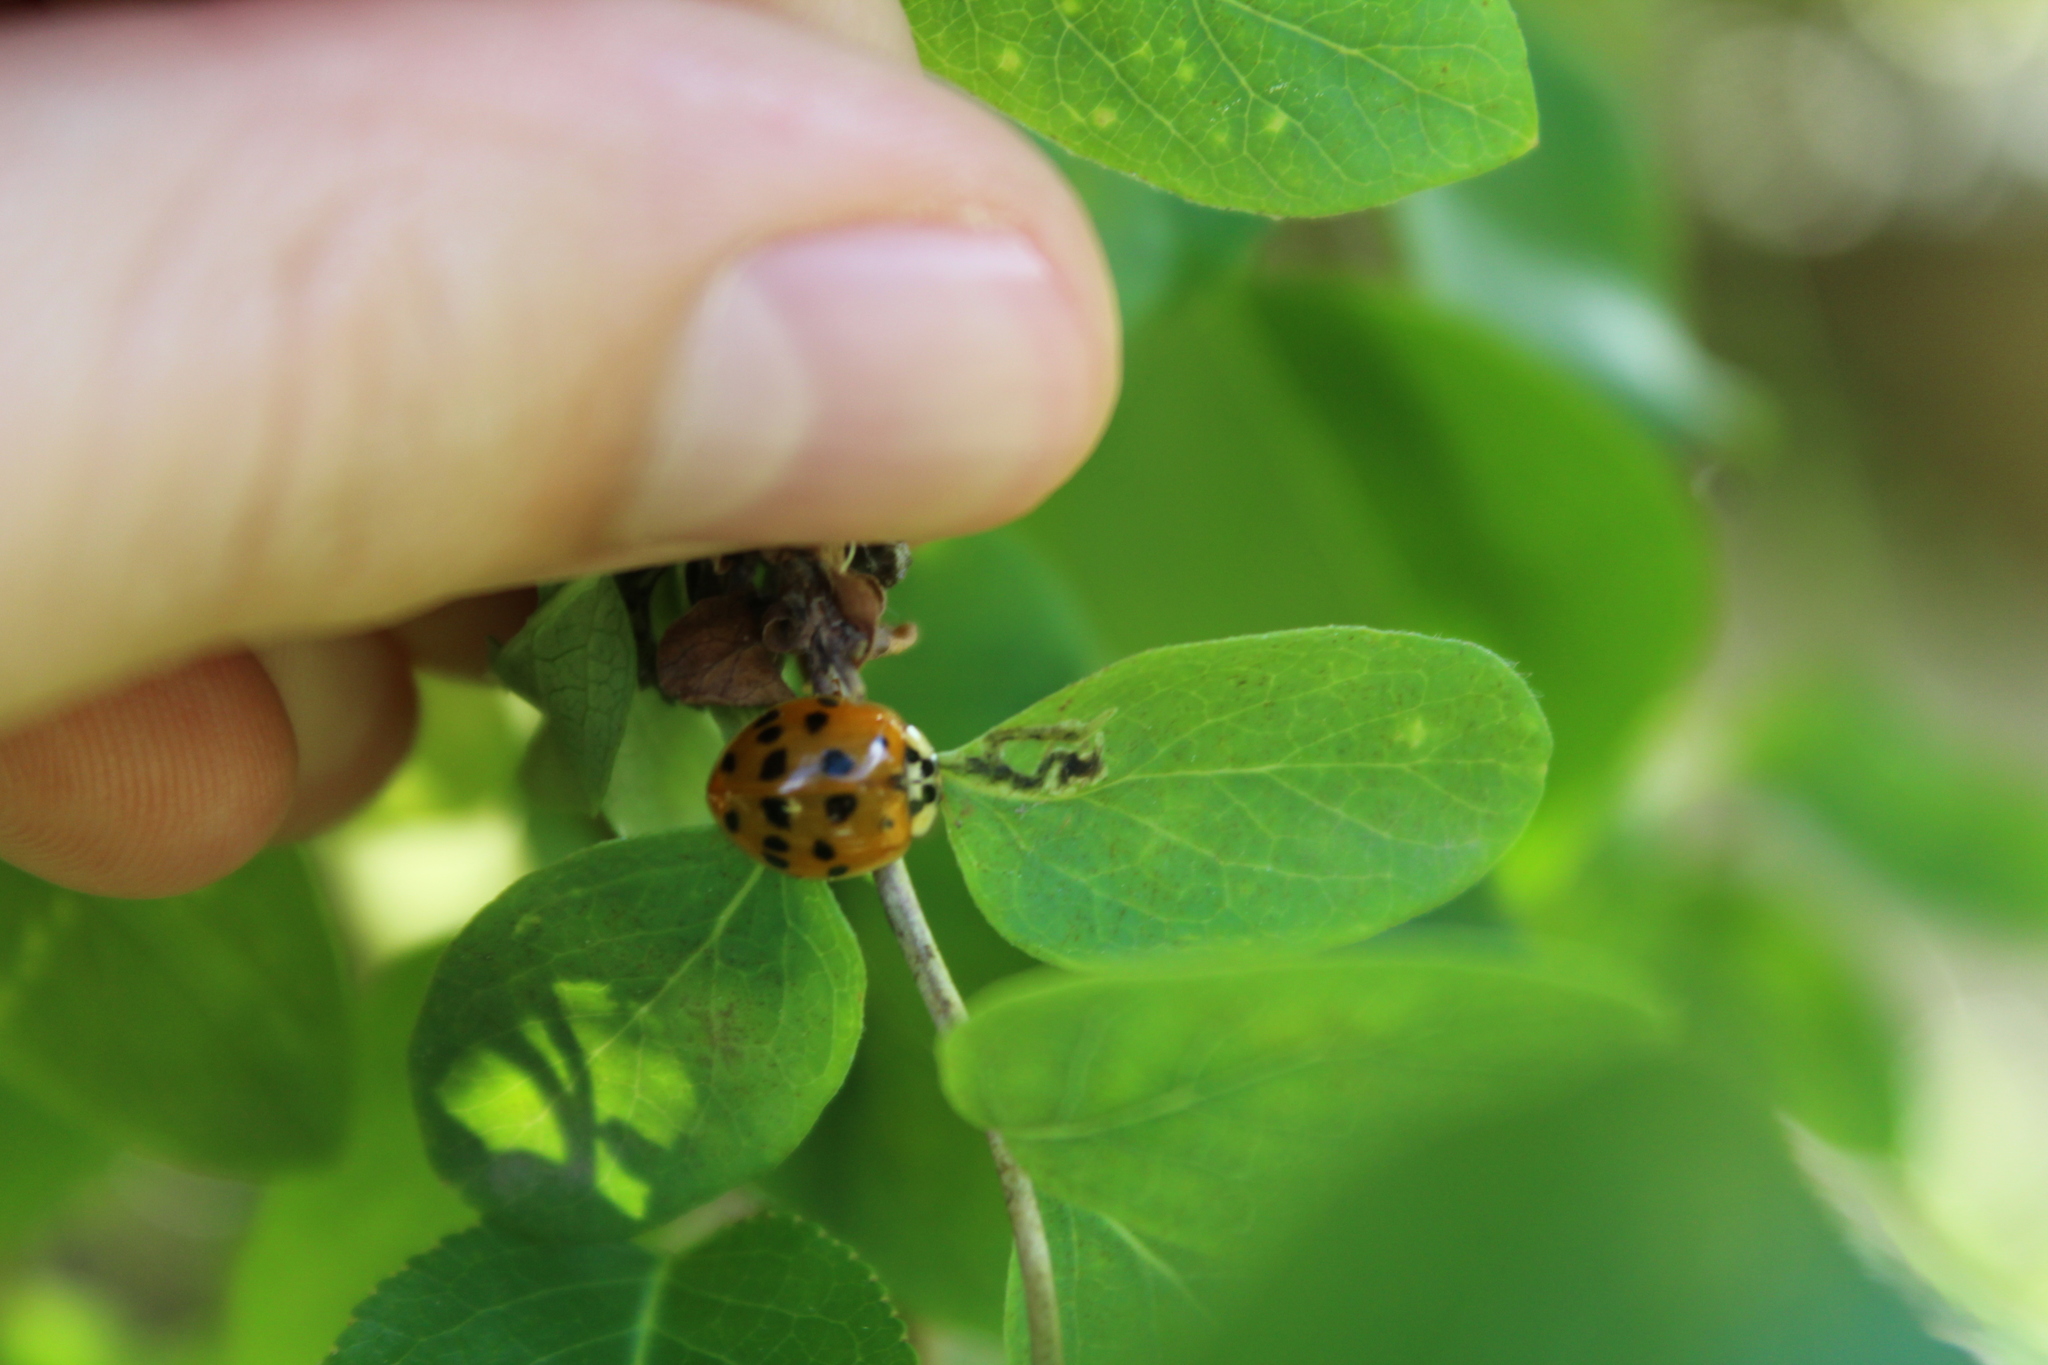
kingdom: Animalia
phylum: Arthropoda
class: Insecta
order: Coleoptera
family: Coccinellidae
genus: Harmonia
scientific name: Harmonia axyridis
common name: Harlequin ladybird
